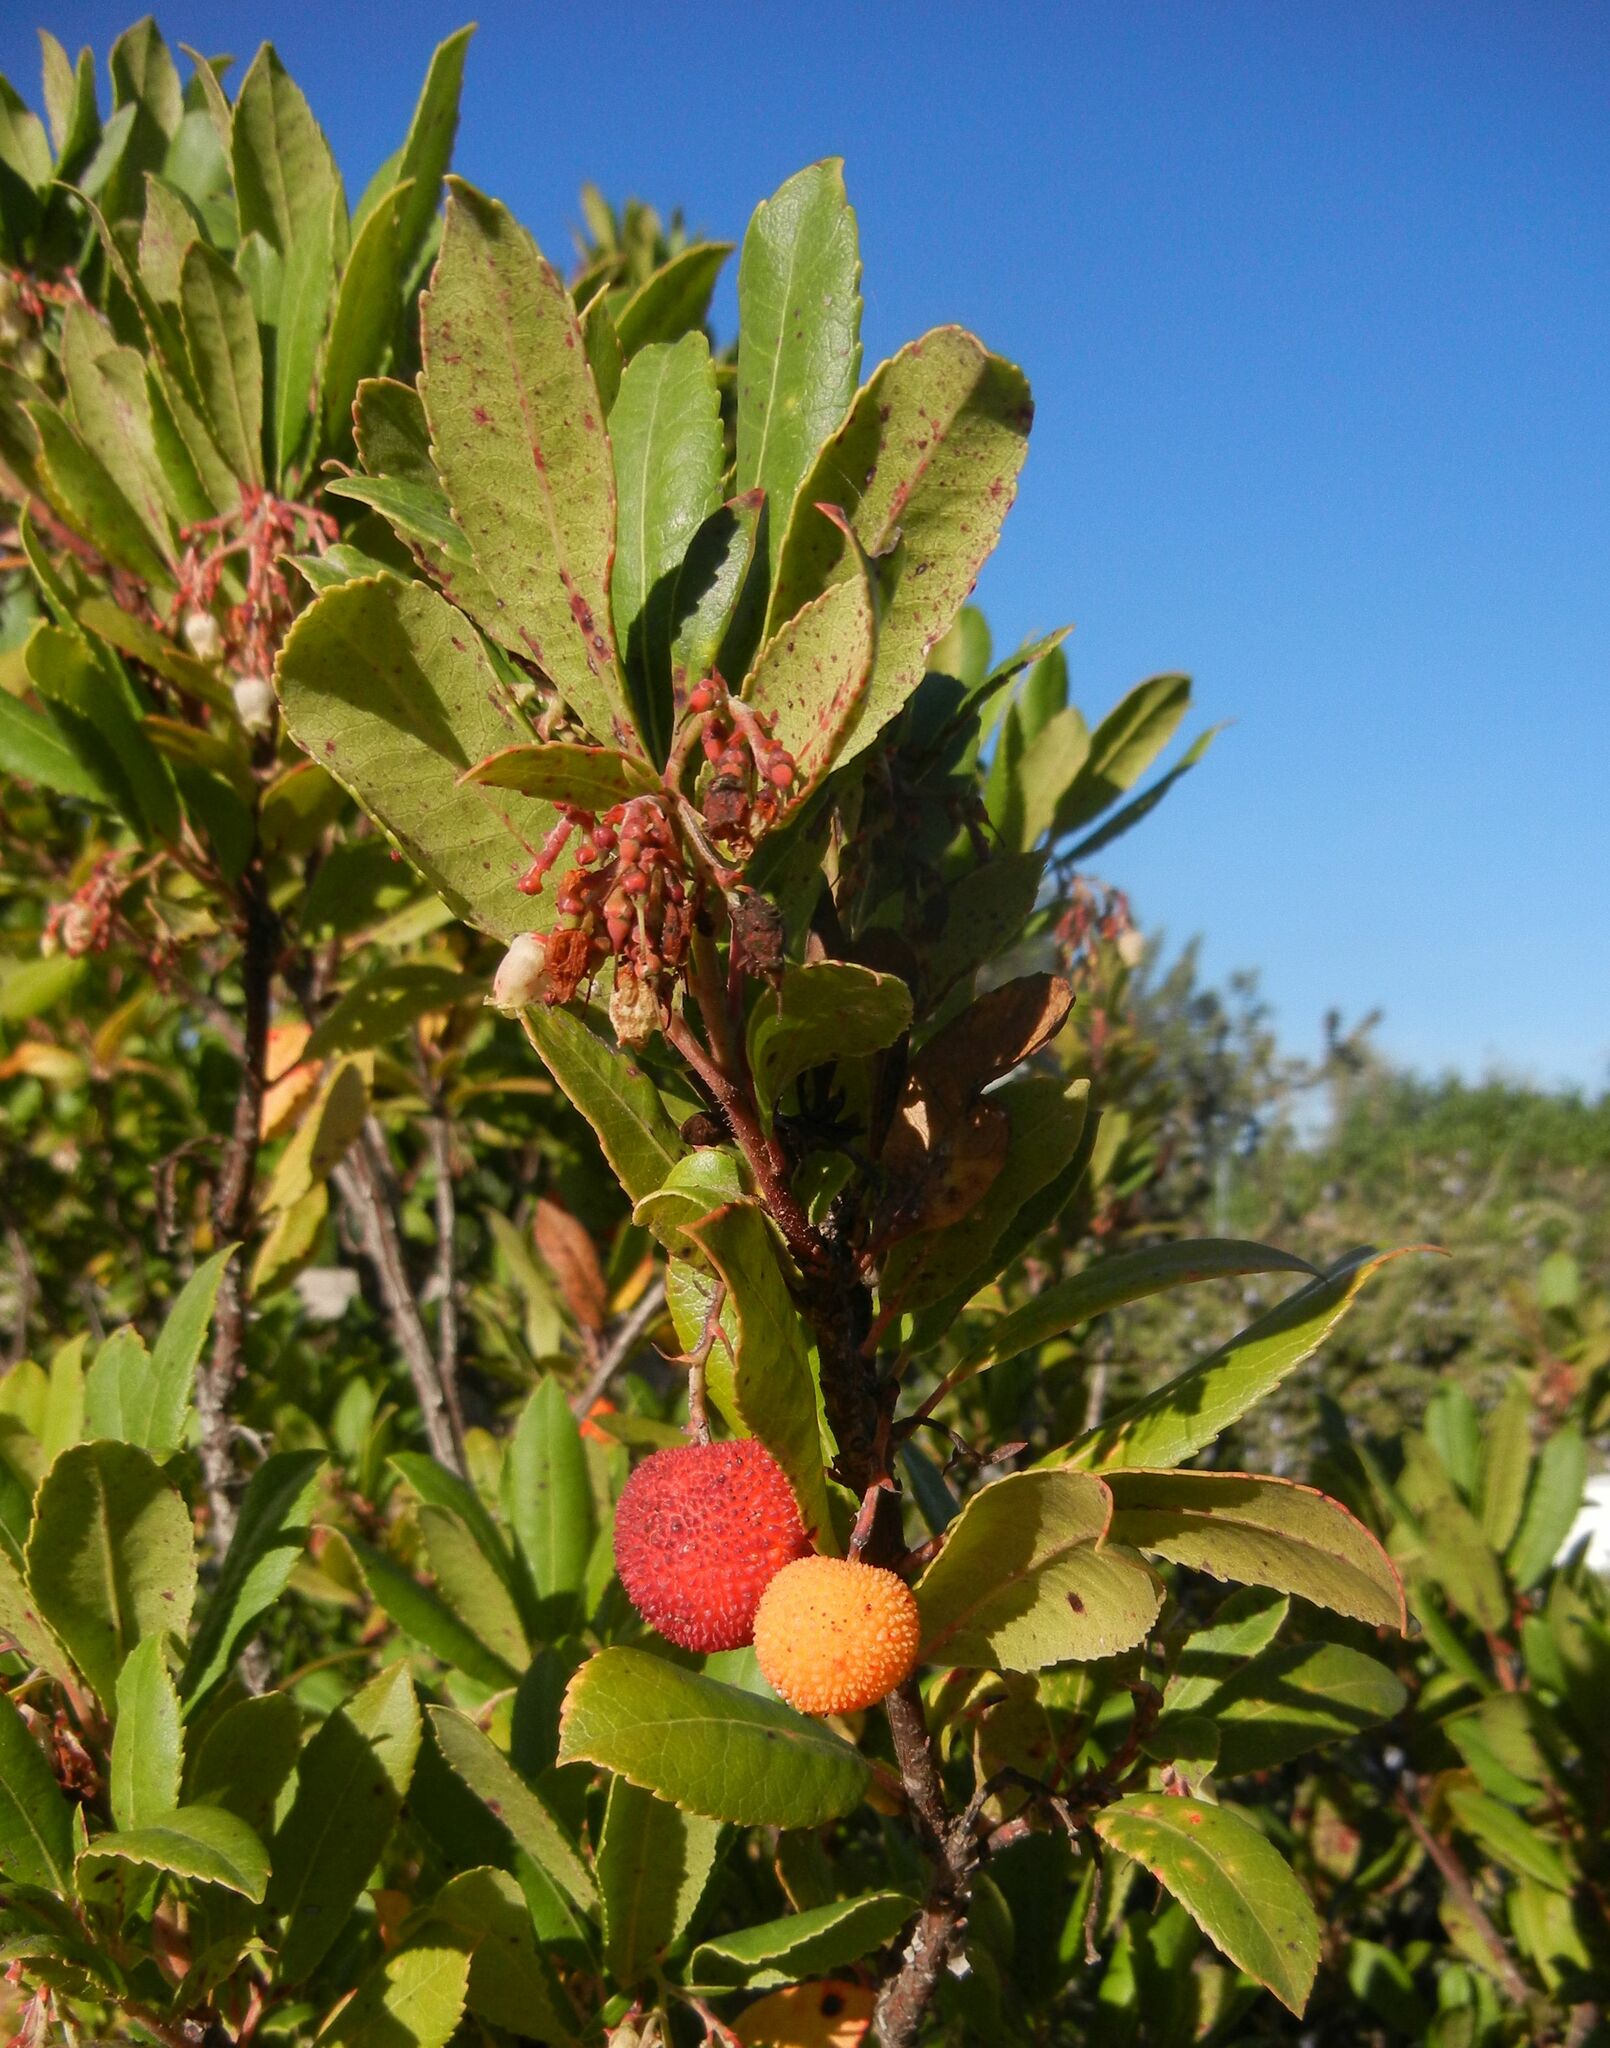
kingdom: Plantae
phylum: Tracheophyta
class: Magnoliopsida
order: Ericales
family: Ericaceae
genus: Arbutus
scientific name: Arbutus unedo
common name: Strawberry-tree
